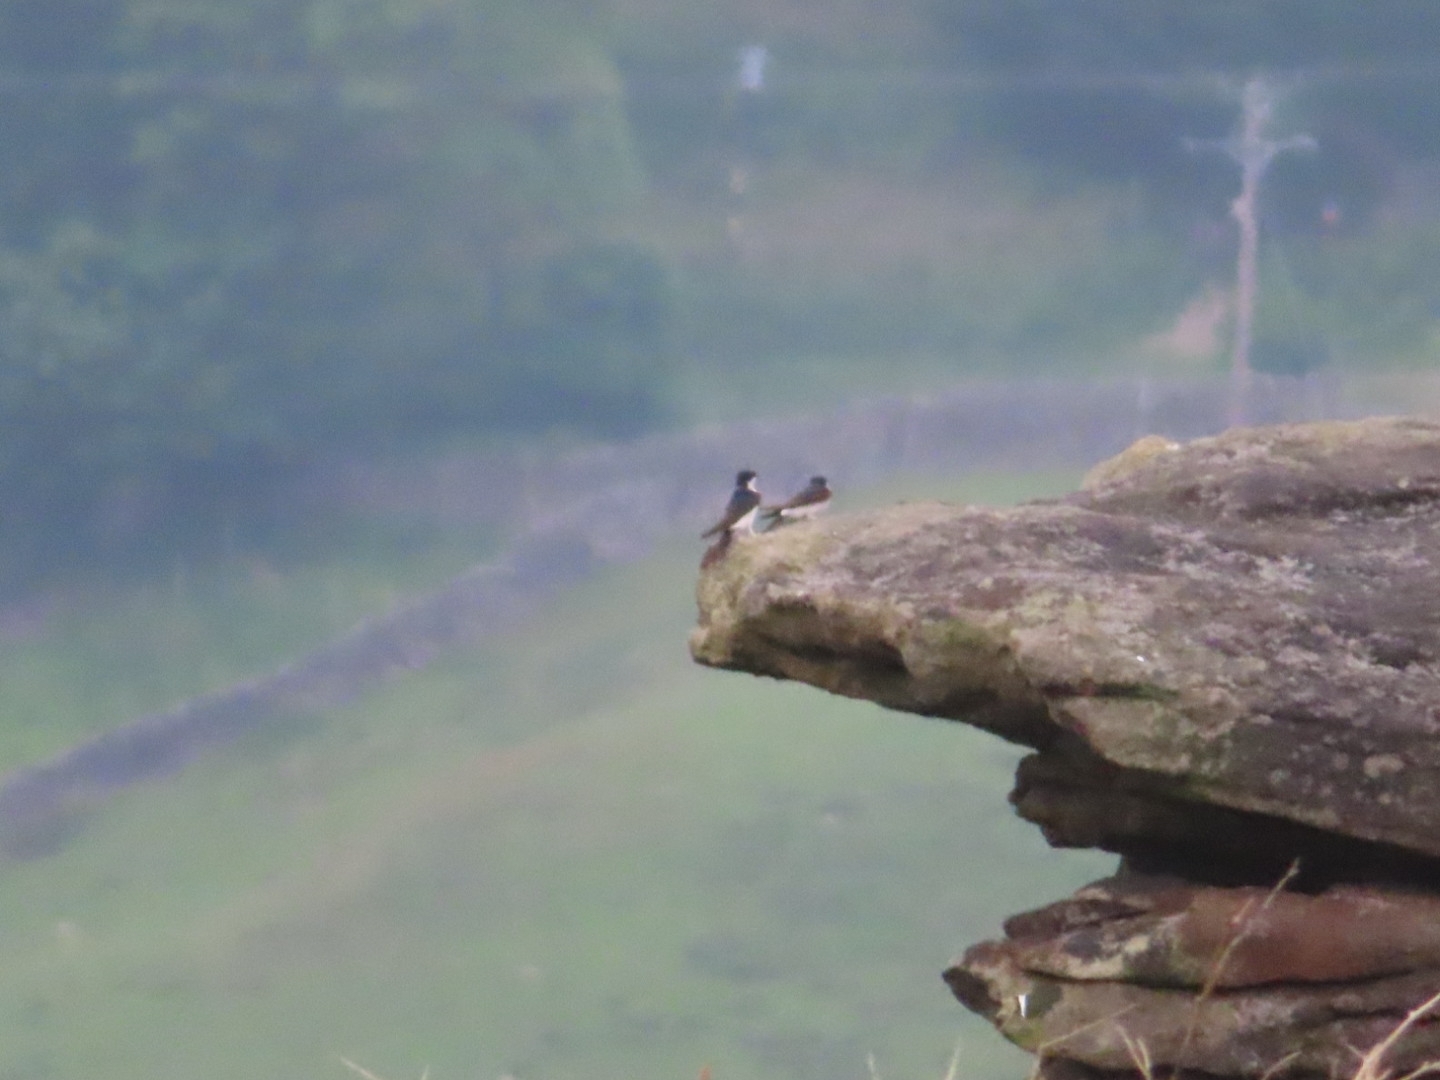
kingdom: Animalia
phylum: Chordata
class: Aves
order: Passeriformes
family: Hirundinidae
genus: Delichon
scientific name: Delichon urbicum
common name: Common house martin
